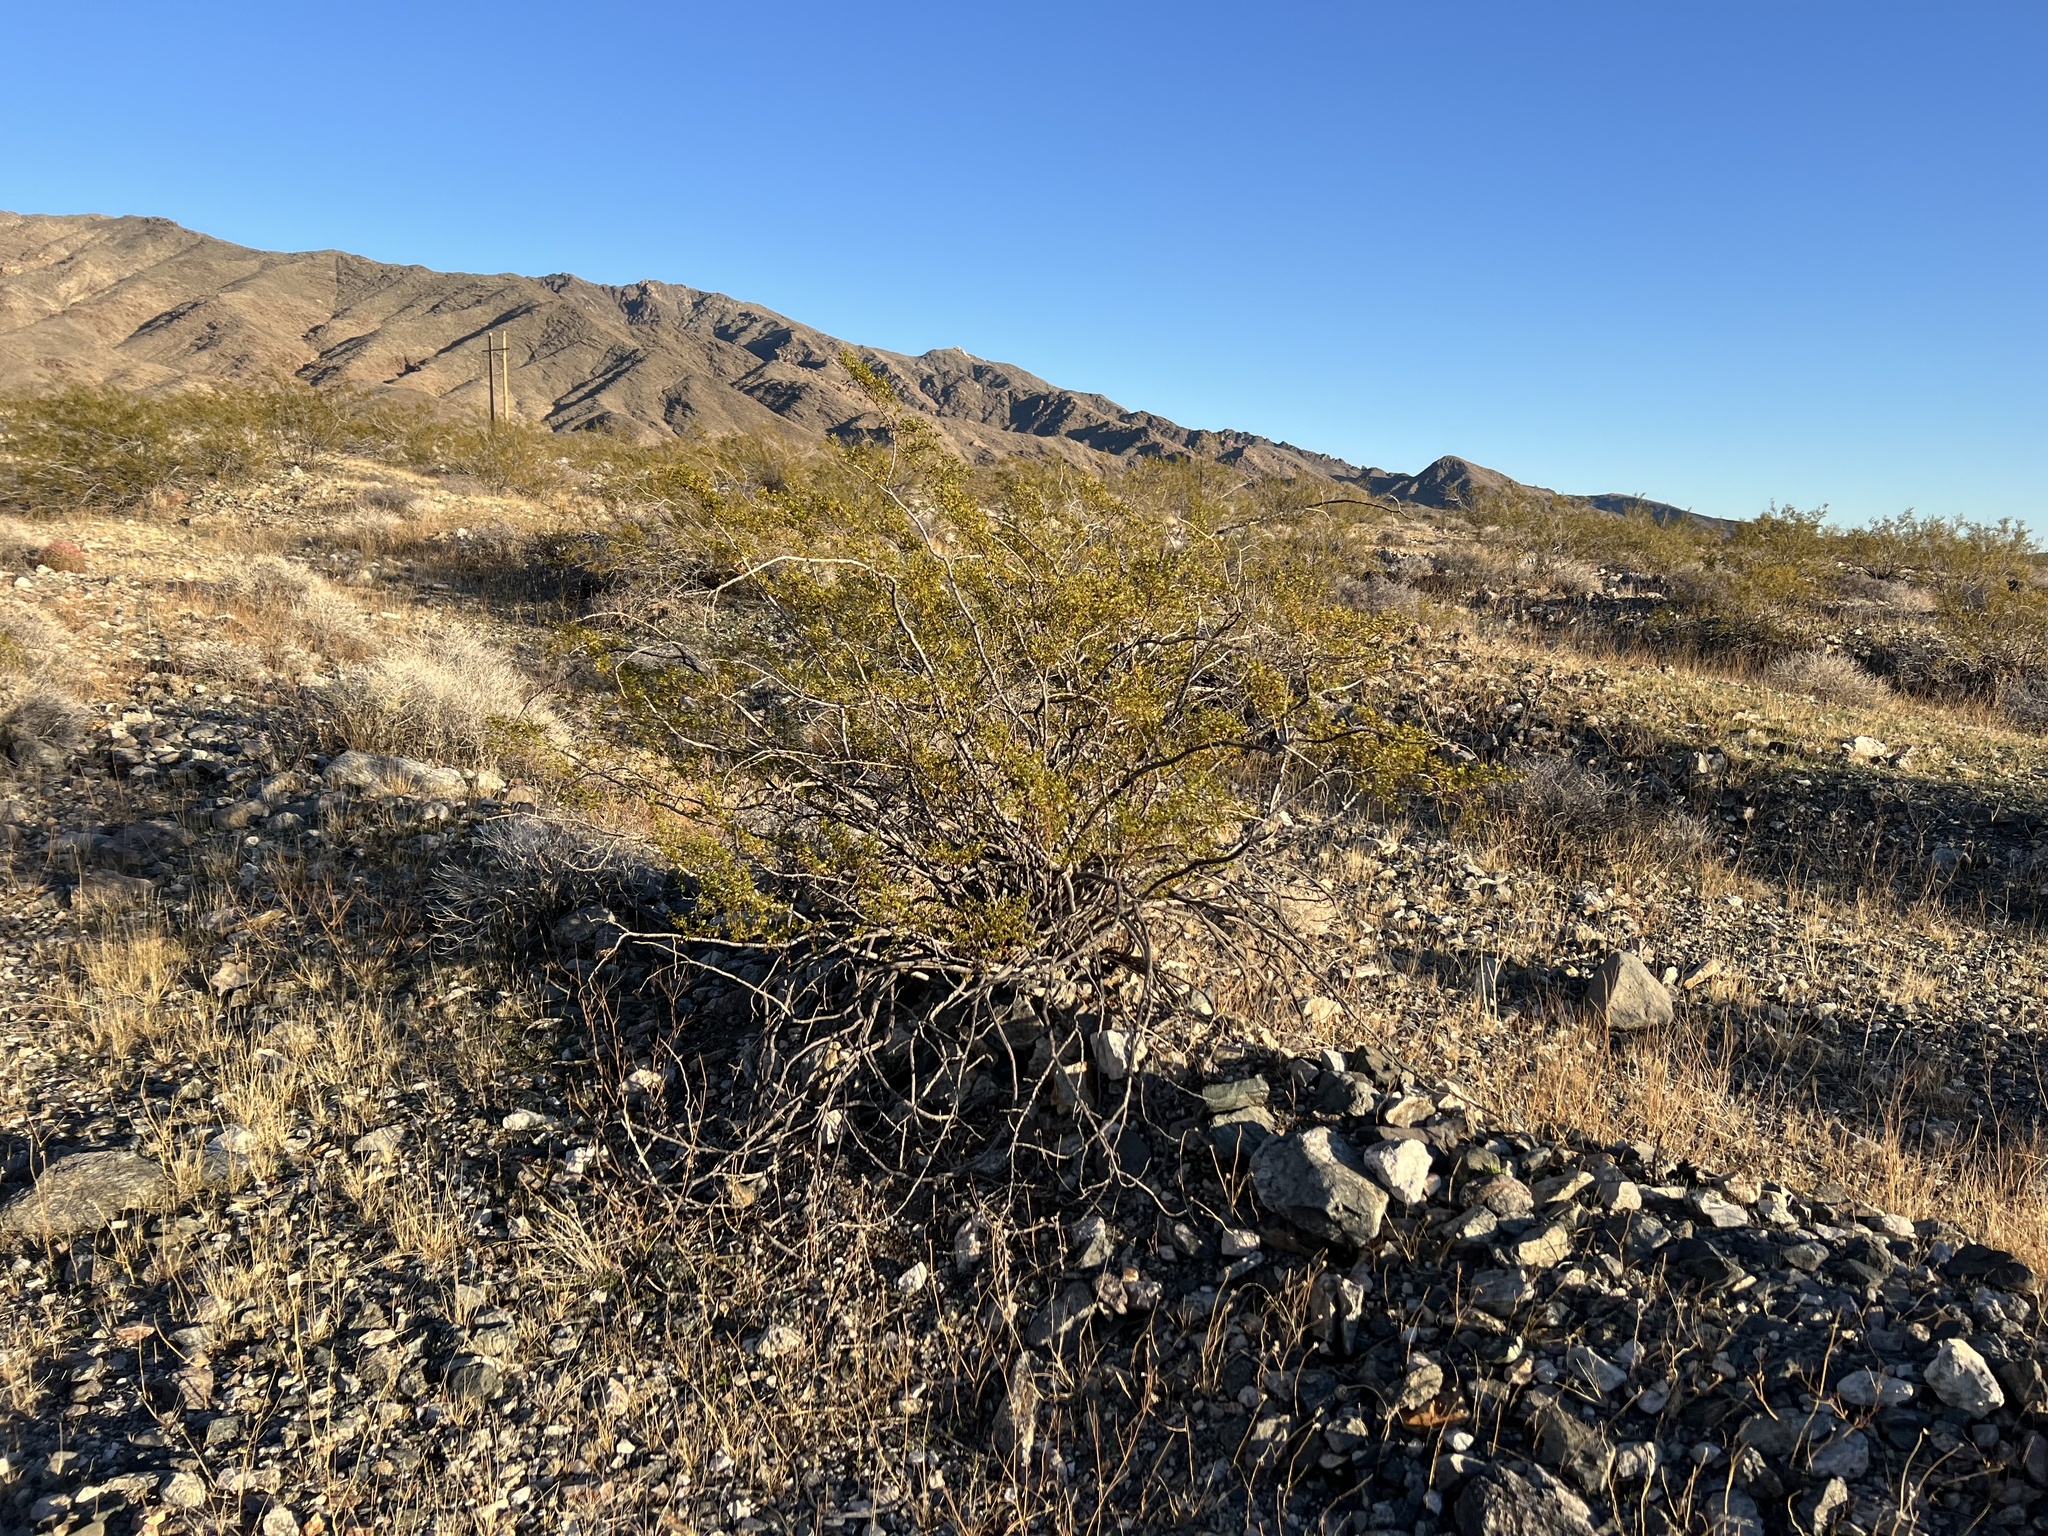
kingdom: Plantae
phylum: Tracheophyta
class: Magnoliopsida
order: Zygophyllales
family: Zygophyllaceae
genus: Larrea
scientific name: Larrea tridentata
